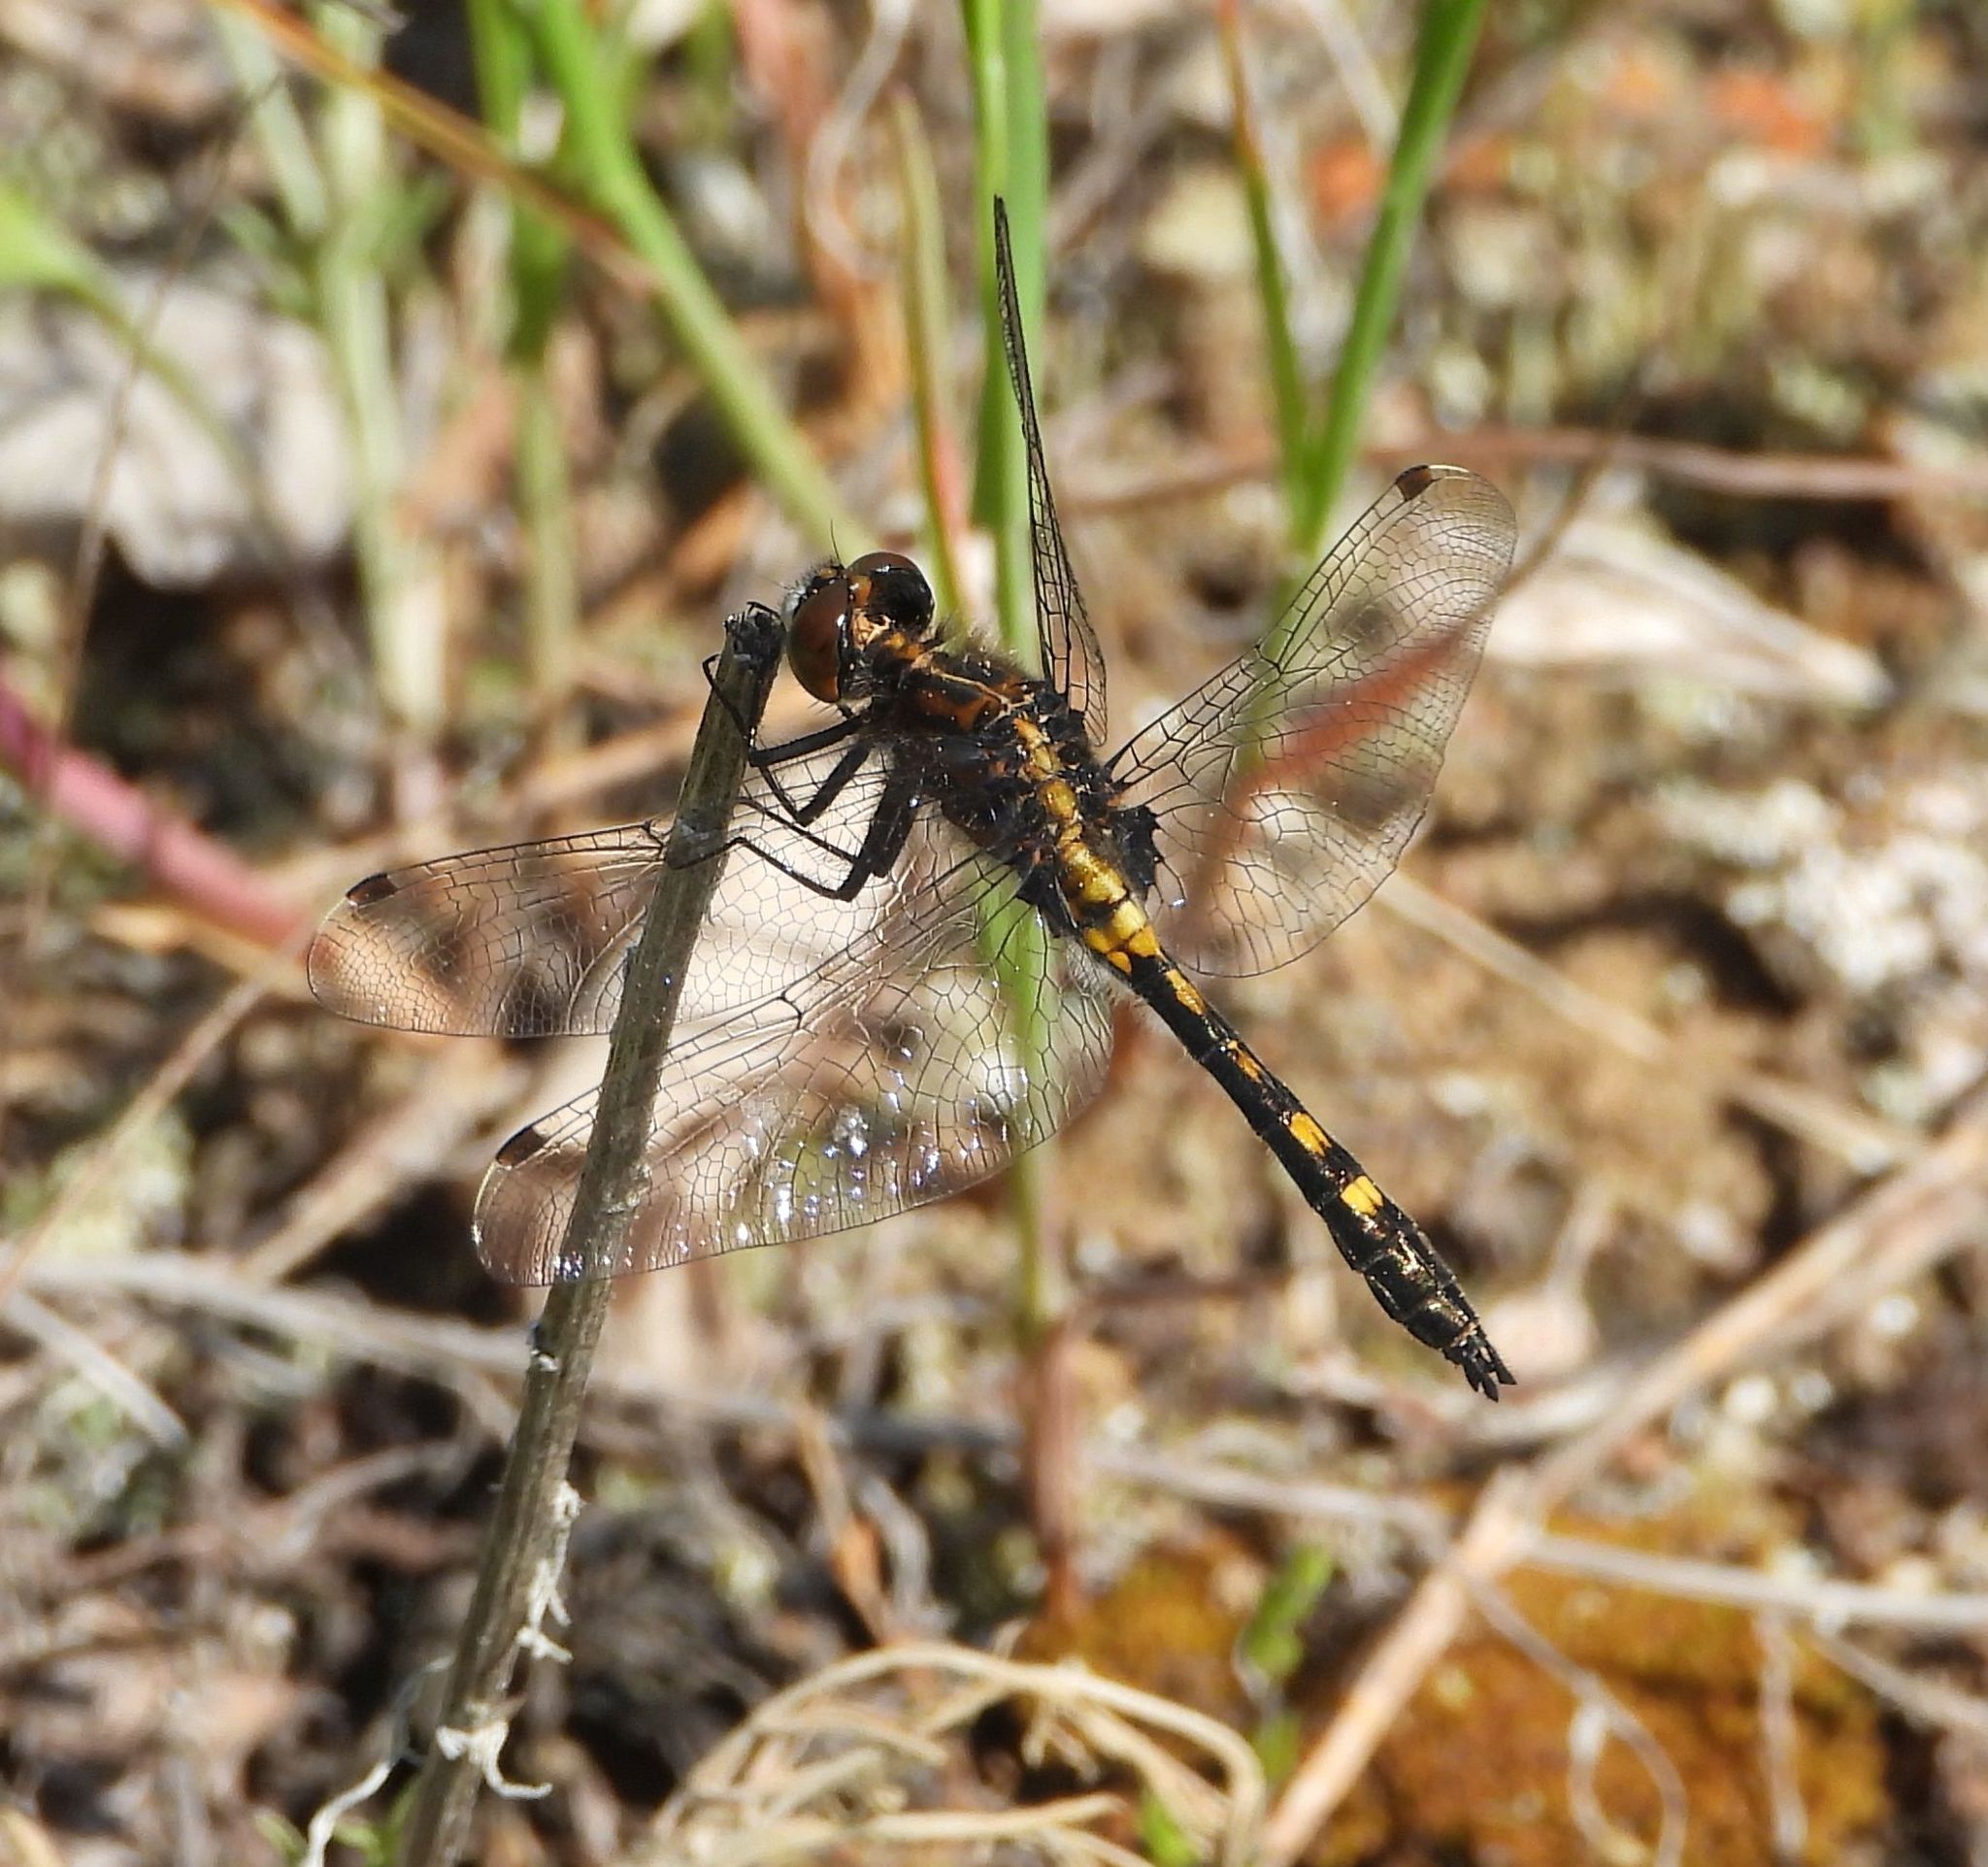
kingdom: Animalia
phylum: Arthropoda
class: Insecta
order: Odonata
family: Libellulidae
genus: Leucorrhinia
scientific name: Leucorrhinia intacta
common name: Dot-tailed whiteface
